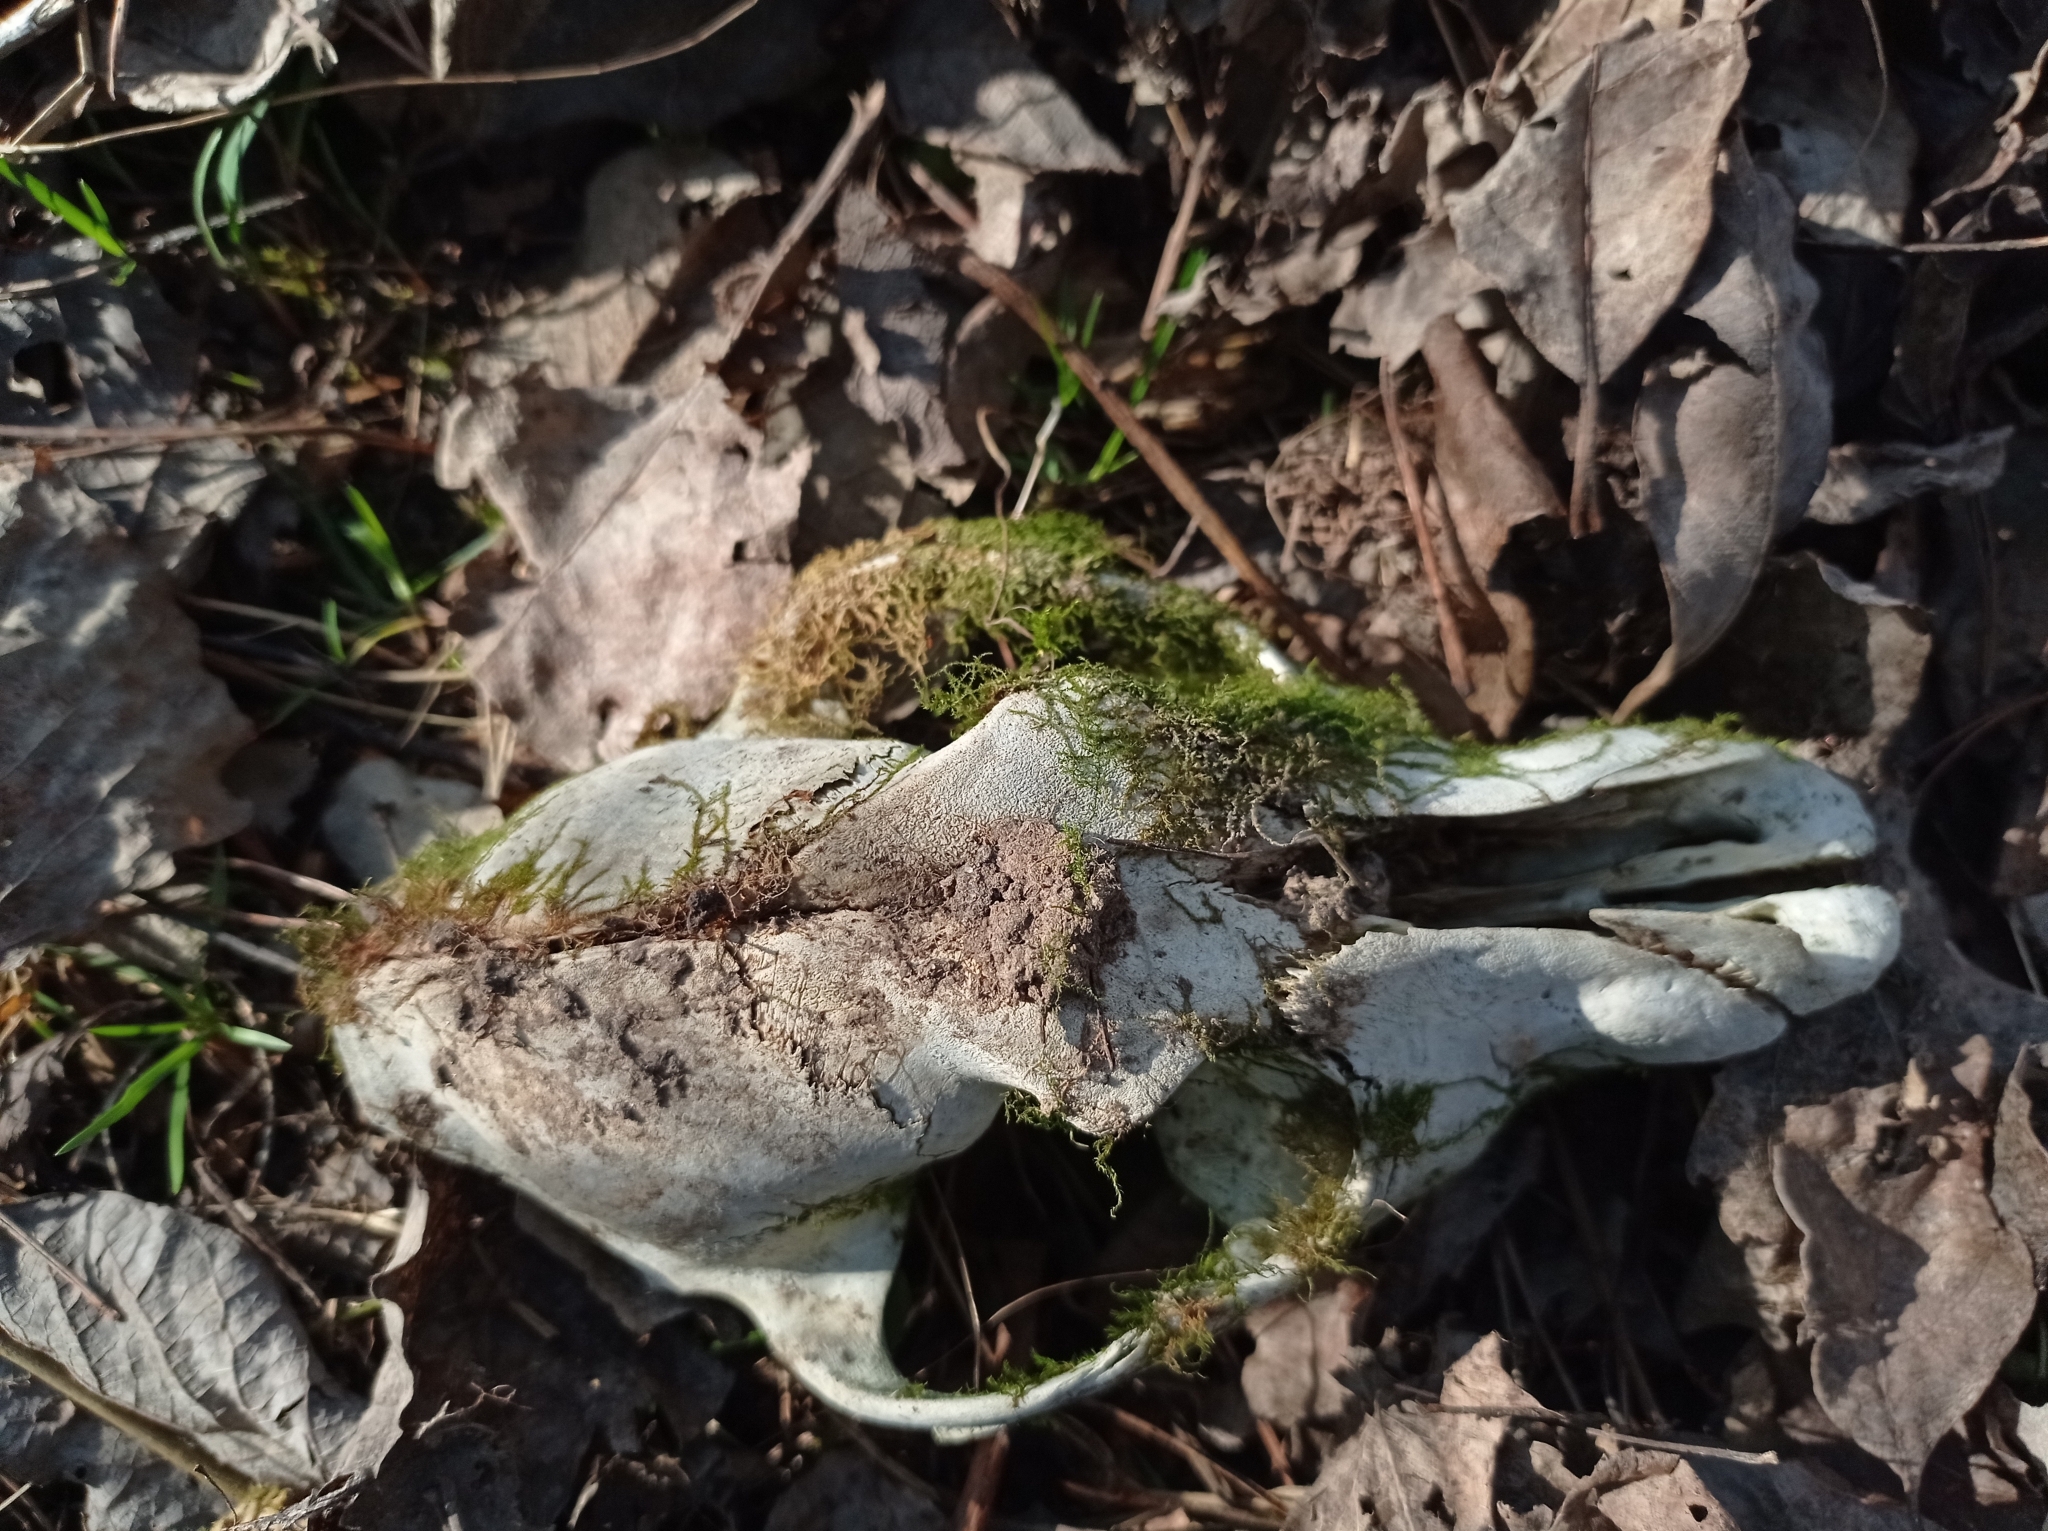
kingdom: Animalia
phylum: Chordata
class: Mammalia
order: Carnivora
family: Canidae
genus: Canis
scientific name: Canis lupus
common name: Gray wolf
